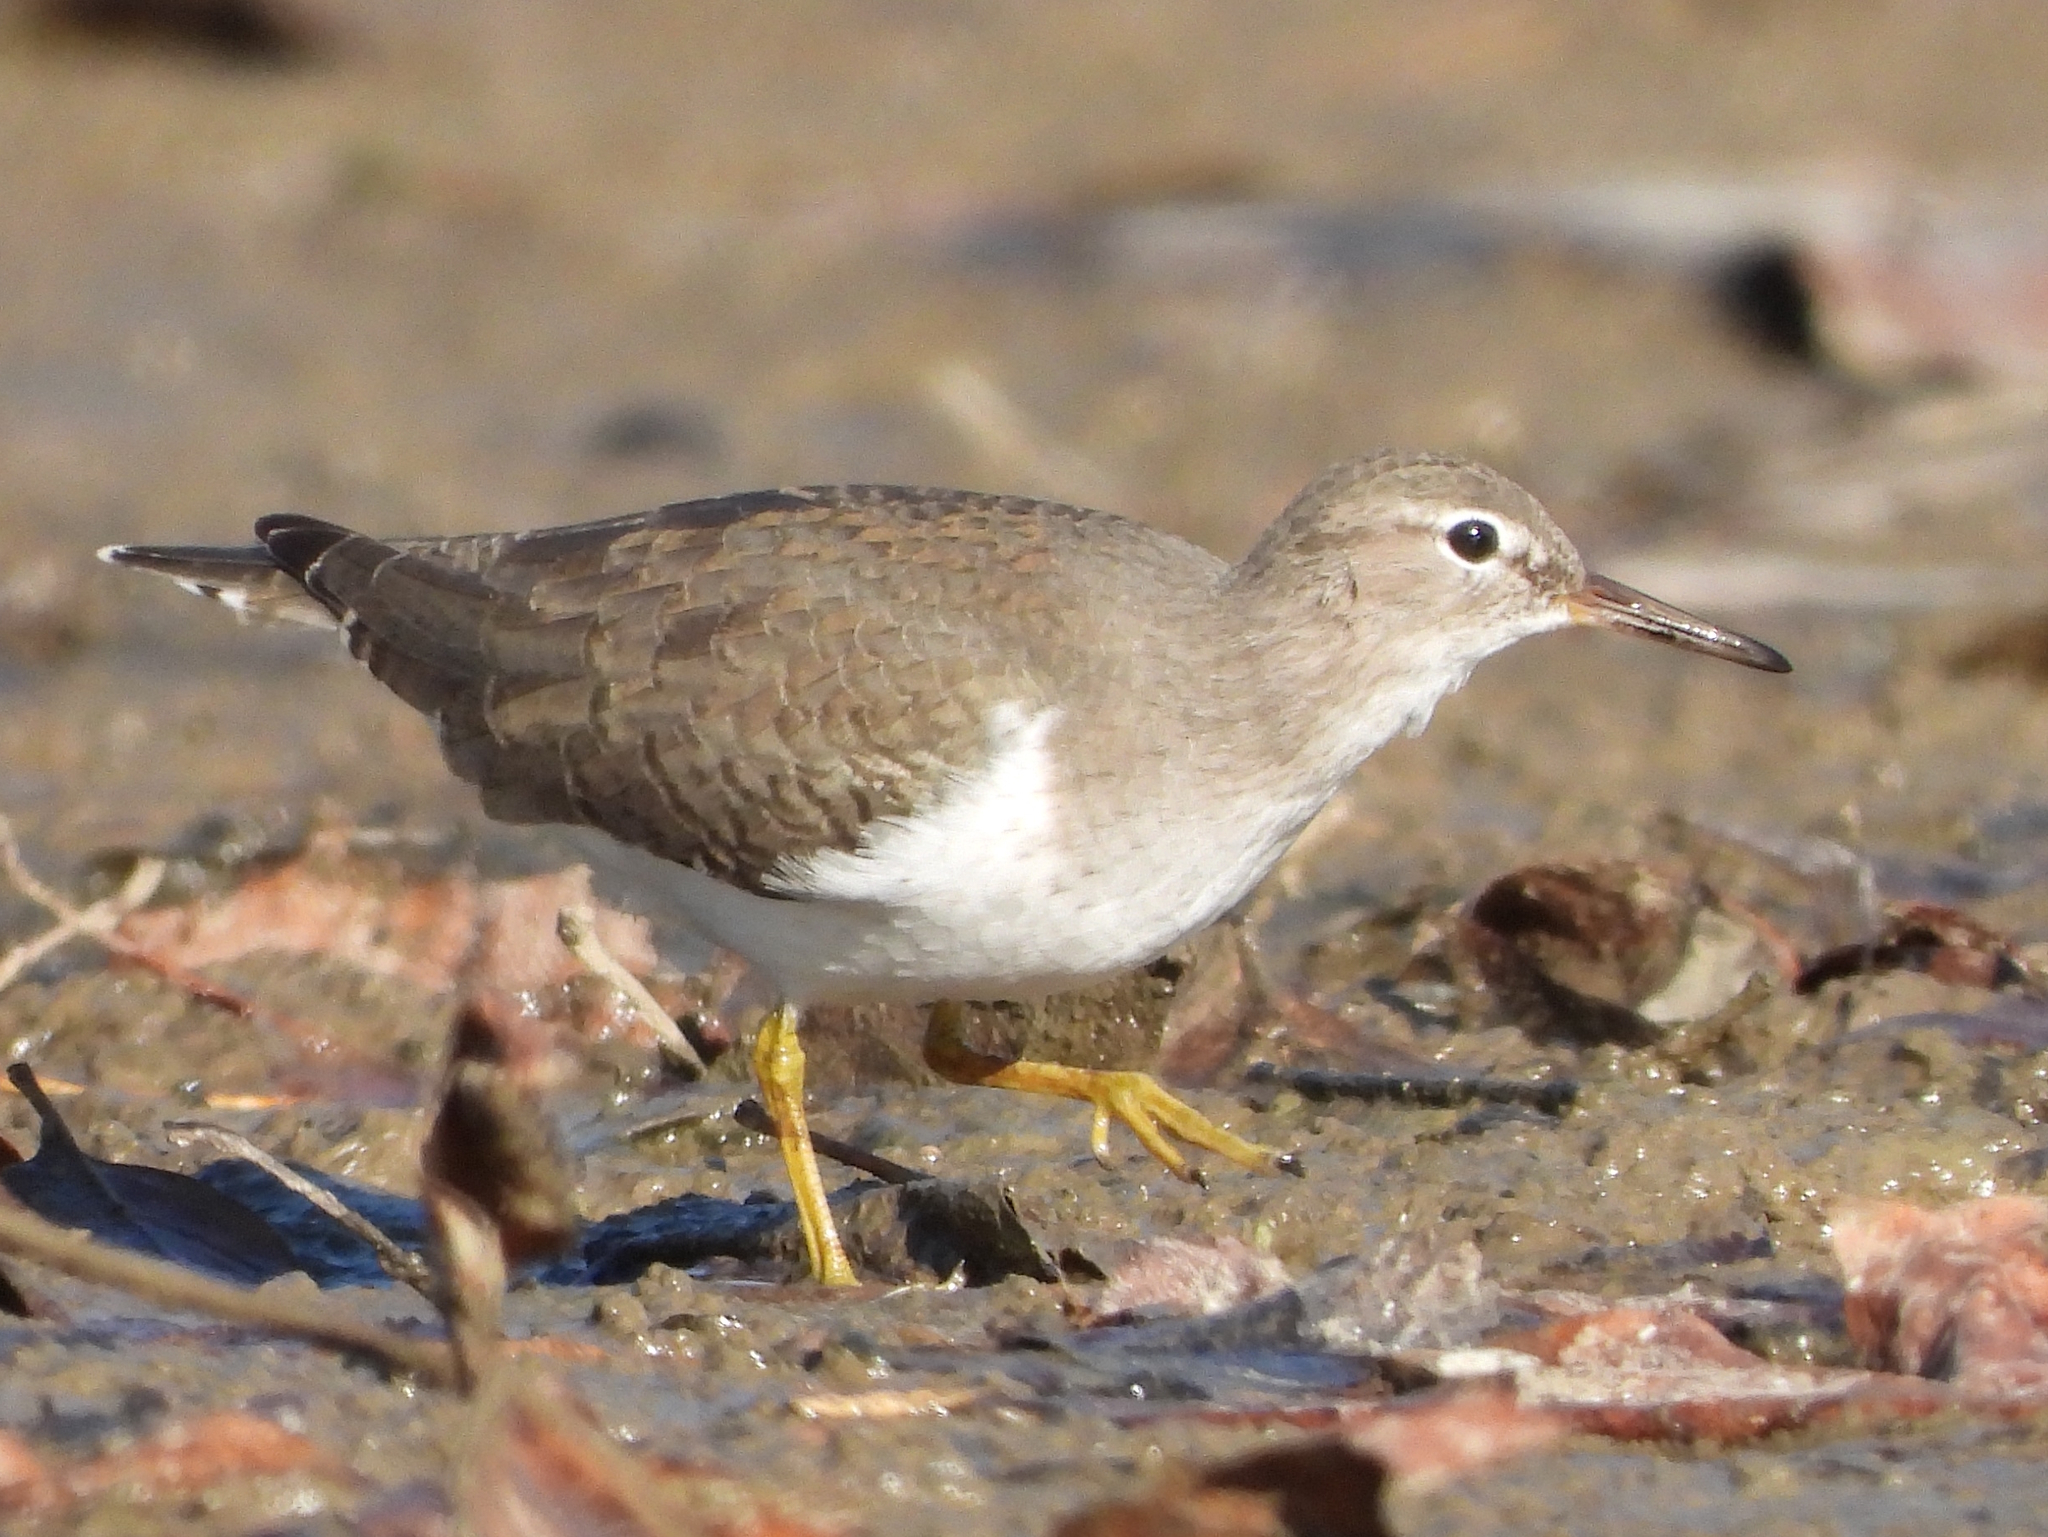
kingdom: Animalia
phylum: Chordata
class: Aves
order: Charadriiformes
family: Scolopacidae
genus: Actitis
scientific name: Actitis macularius
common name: Spotted sandpiper
